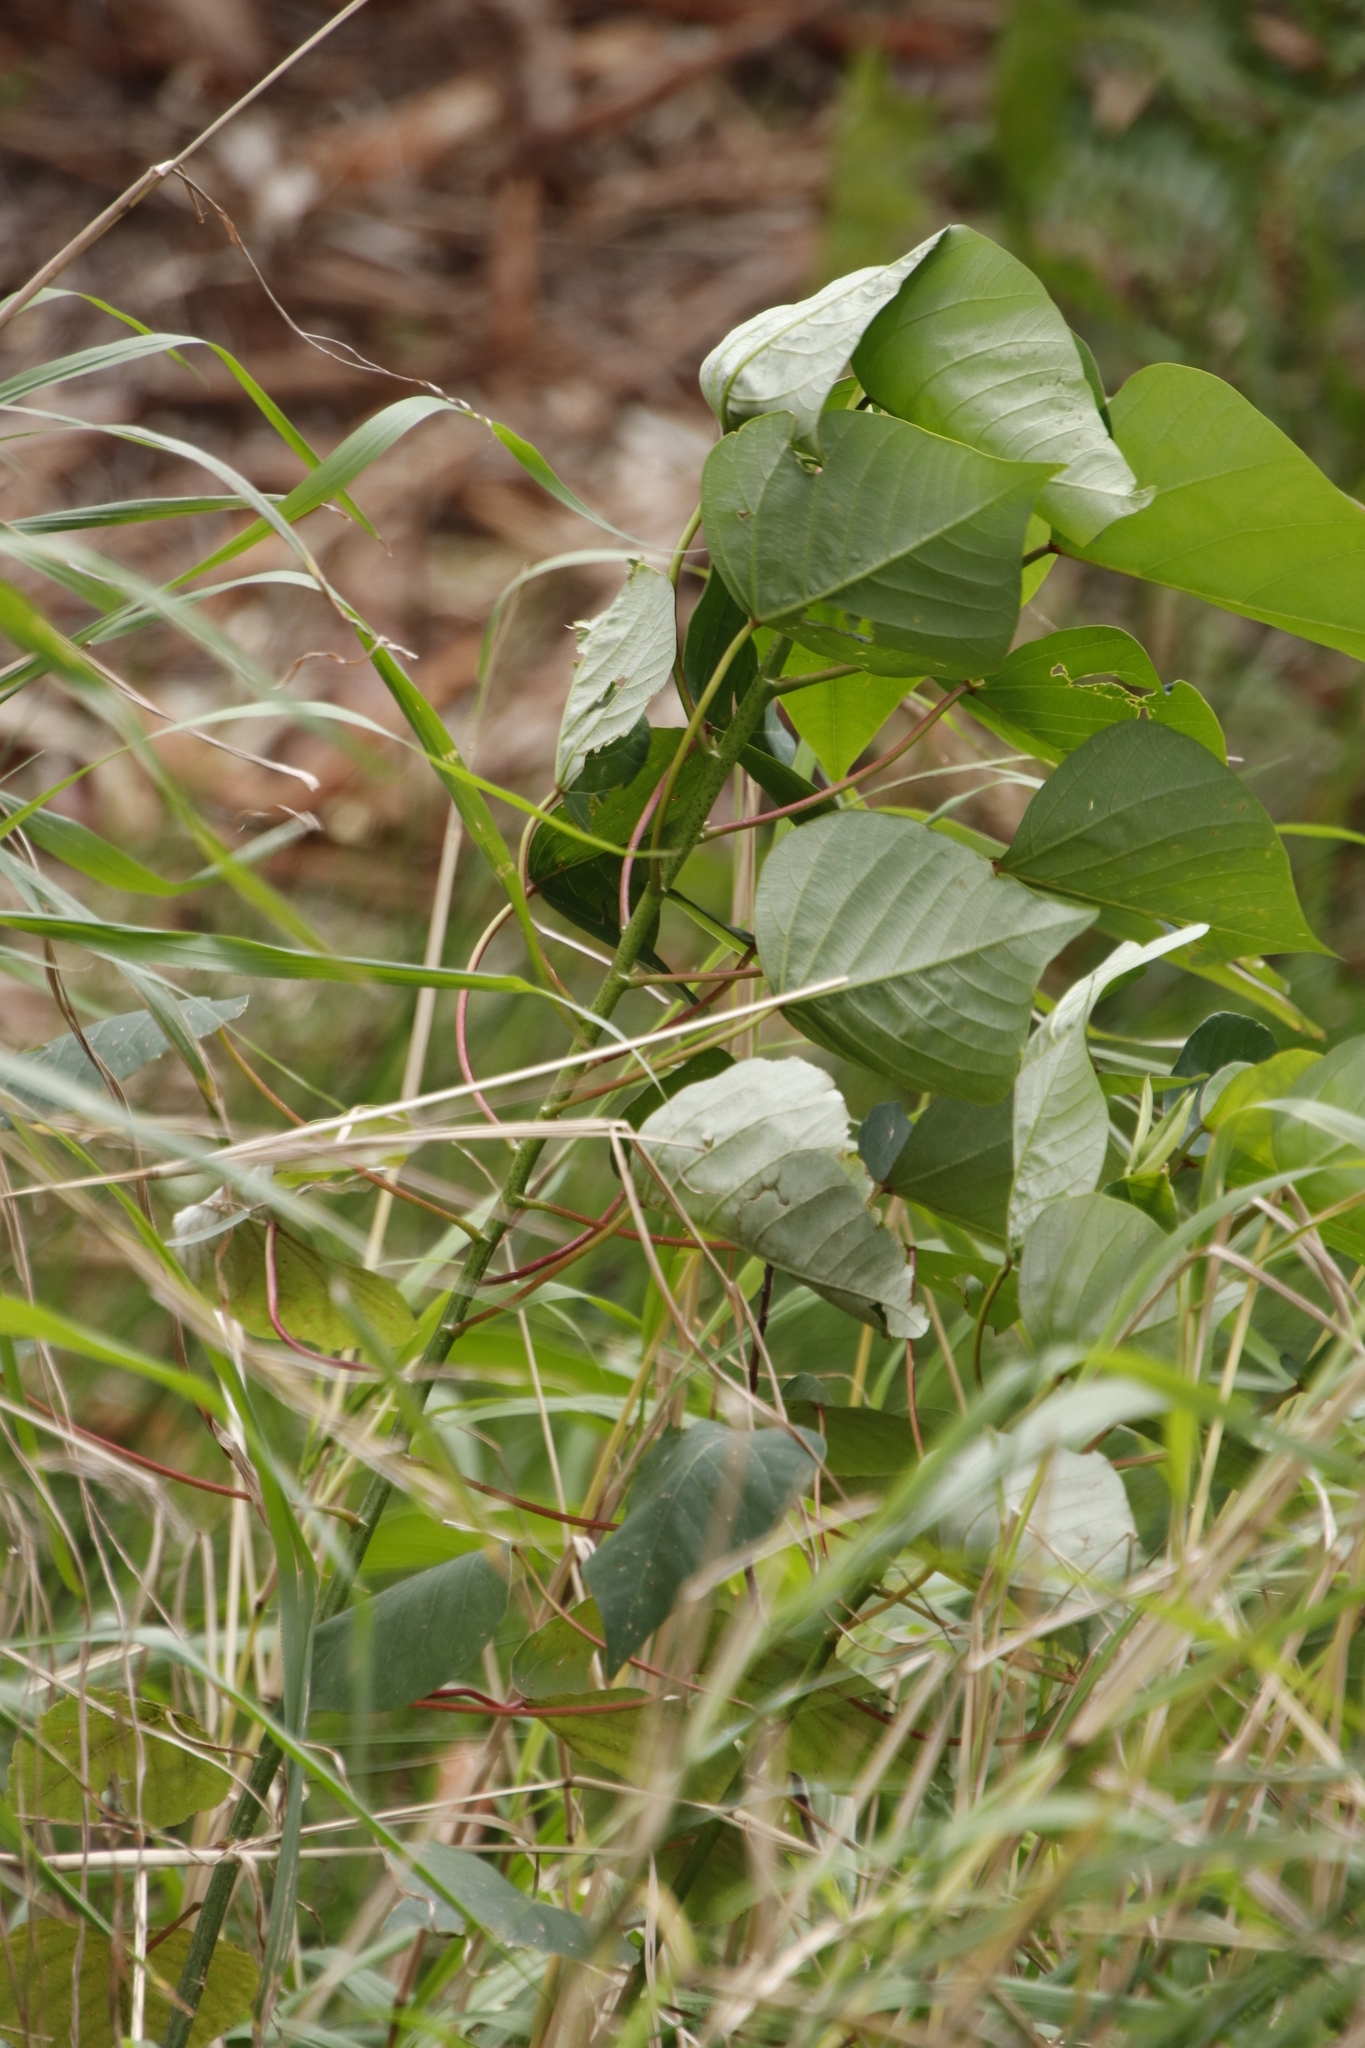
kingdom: Plantae
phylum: Tracheophyta
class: Magnoliopsida
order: Malpighiales
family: Euphorbiaceae
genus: Homalanthus
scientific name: Homalanthus populifolius
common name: Queensland poplar
